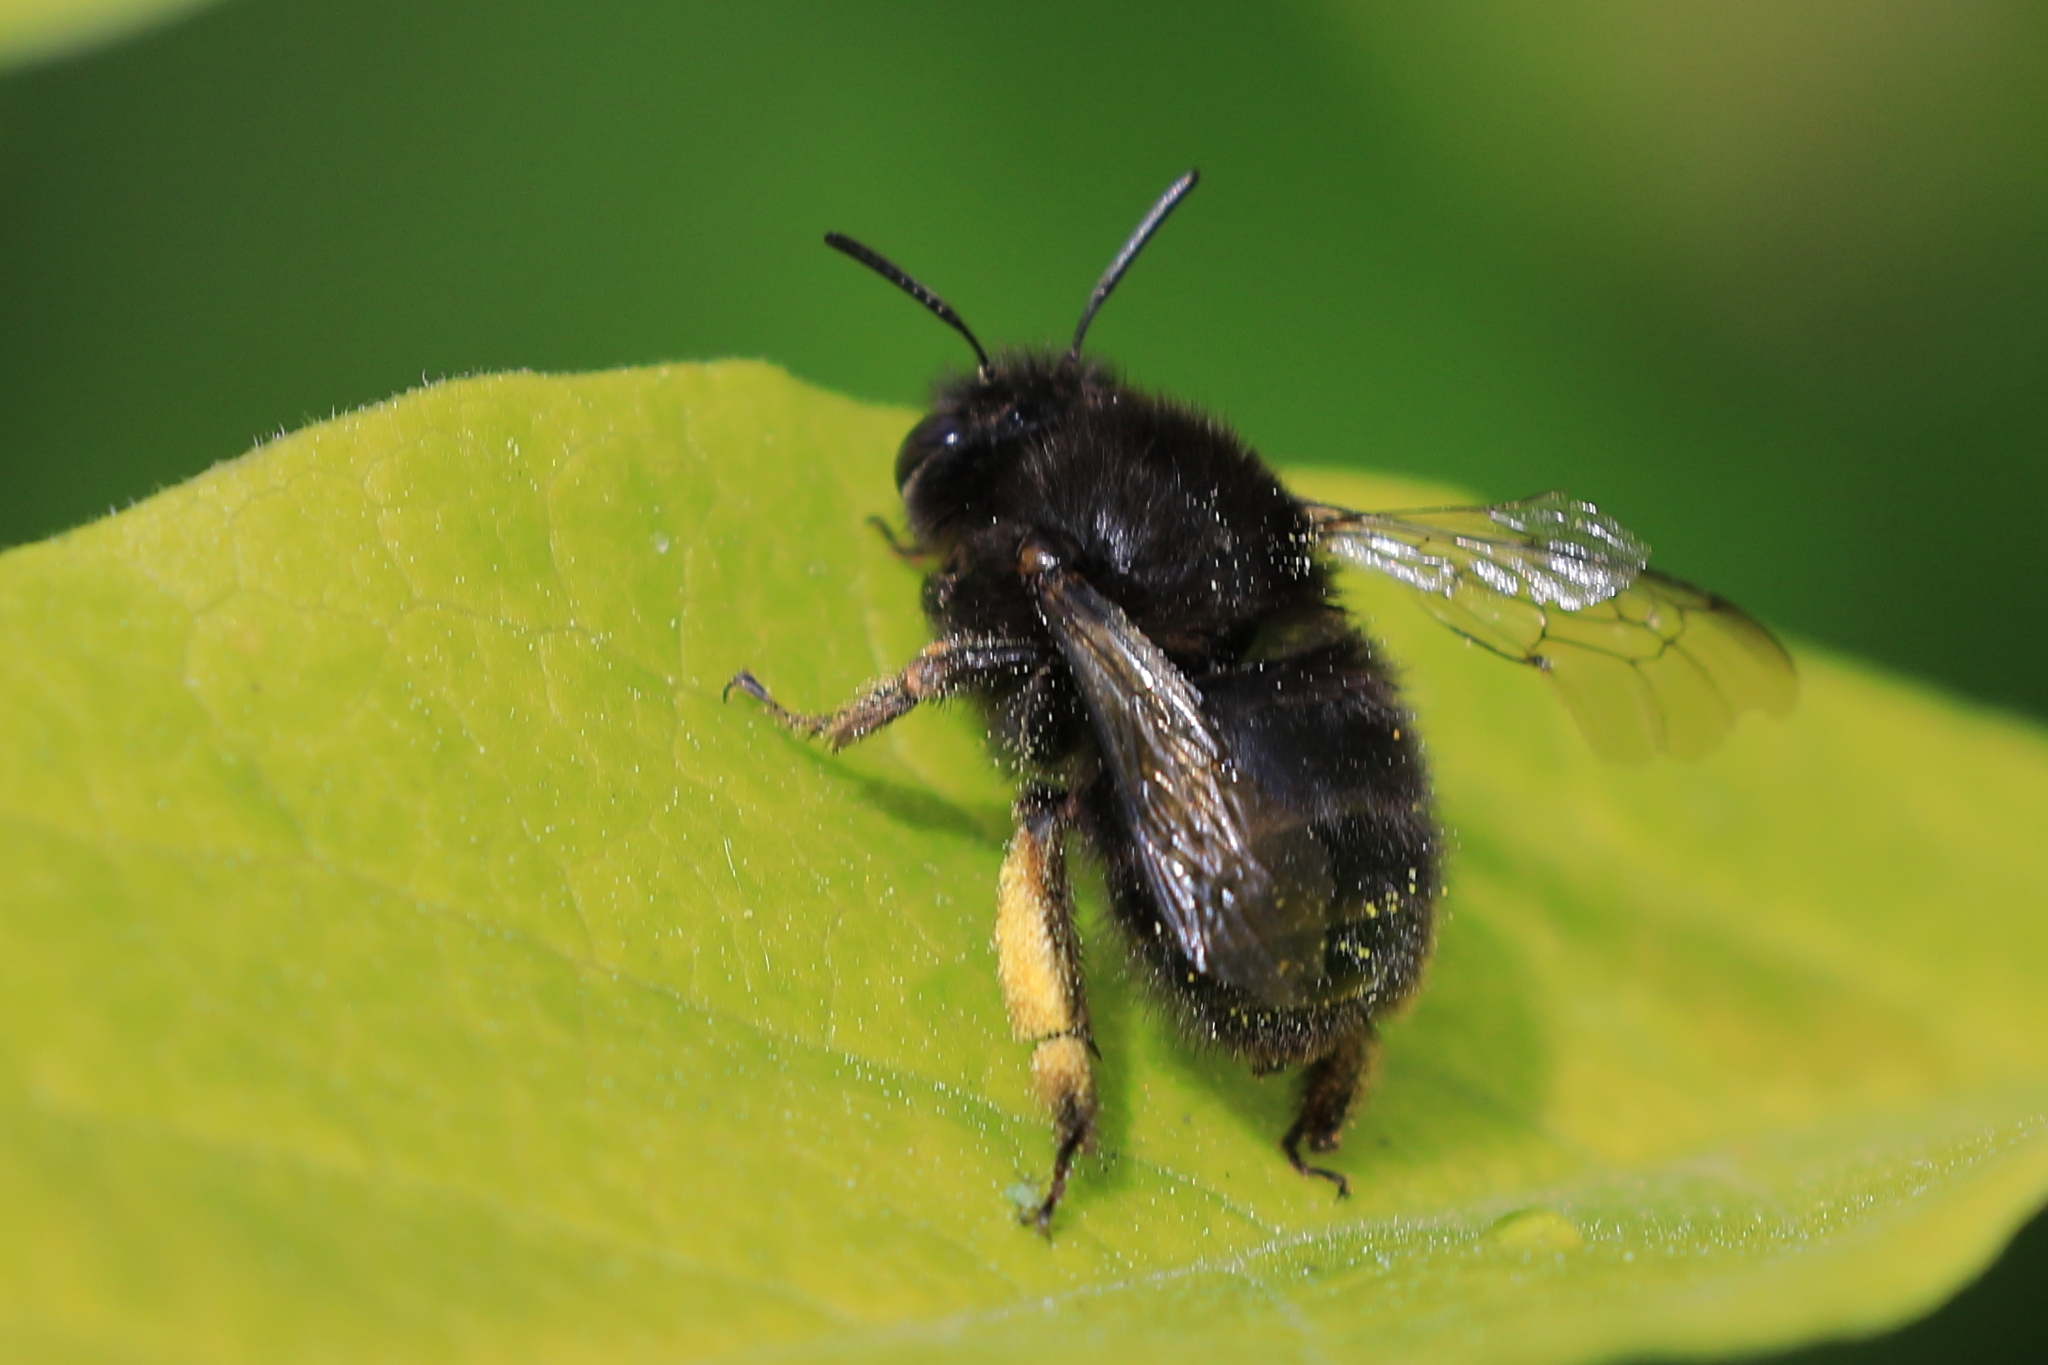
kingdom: Animalia
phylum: Arthropoda
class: Insecta
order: Hymenoptera
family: Apidae
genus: Anthophora
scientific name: Anthophora plumipes
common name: Hairy-footed flower bee
